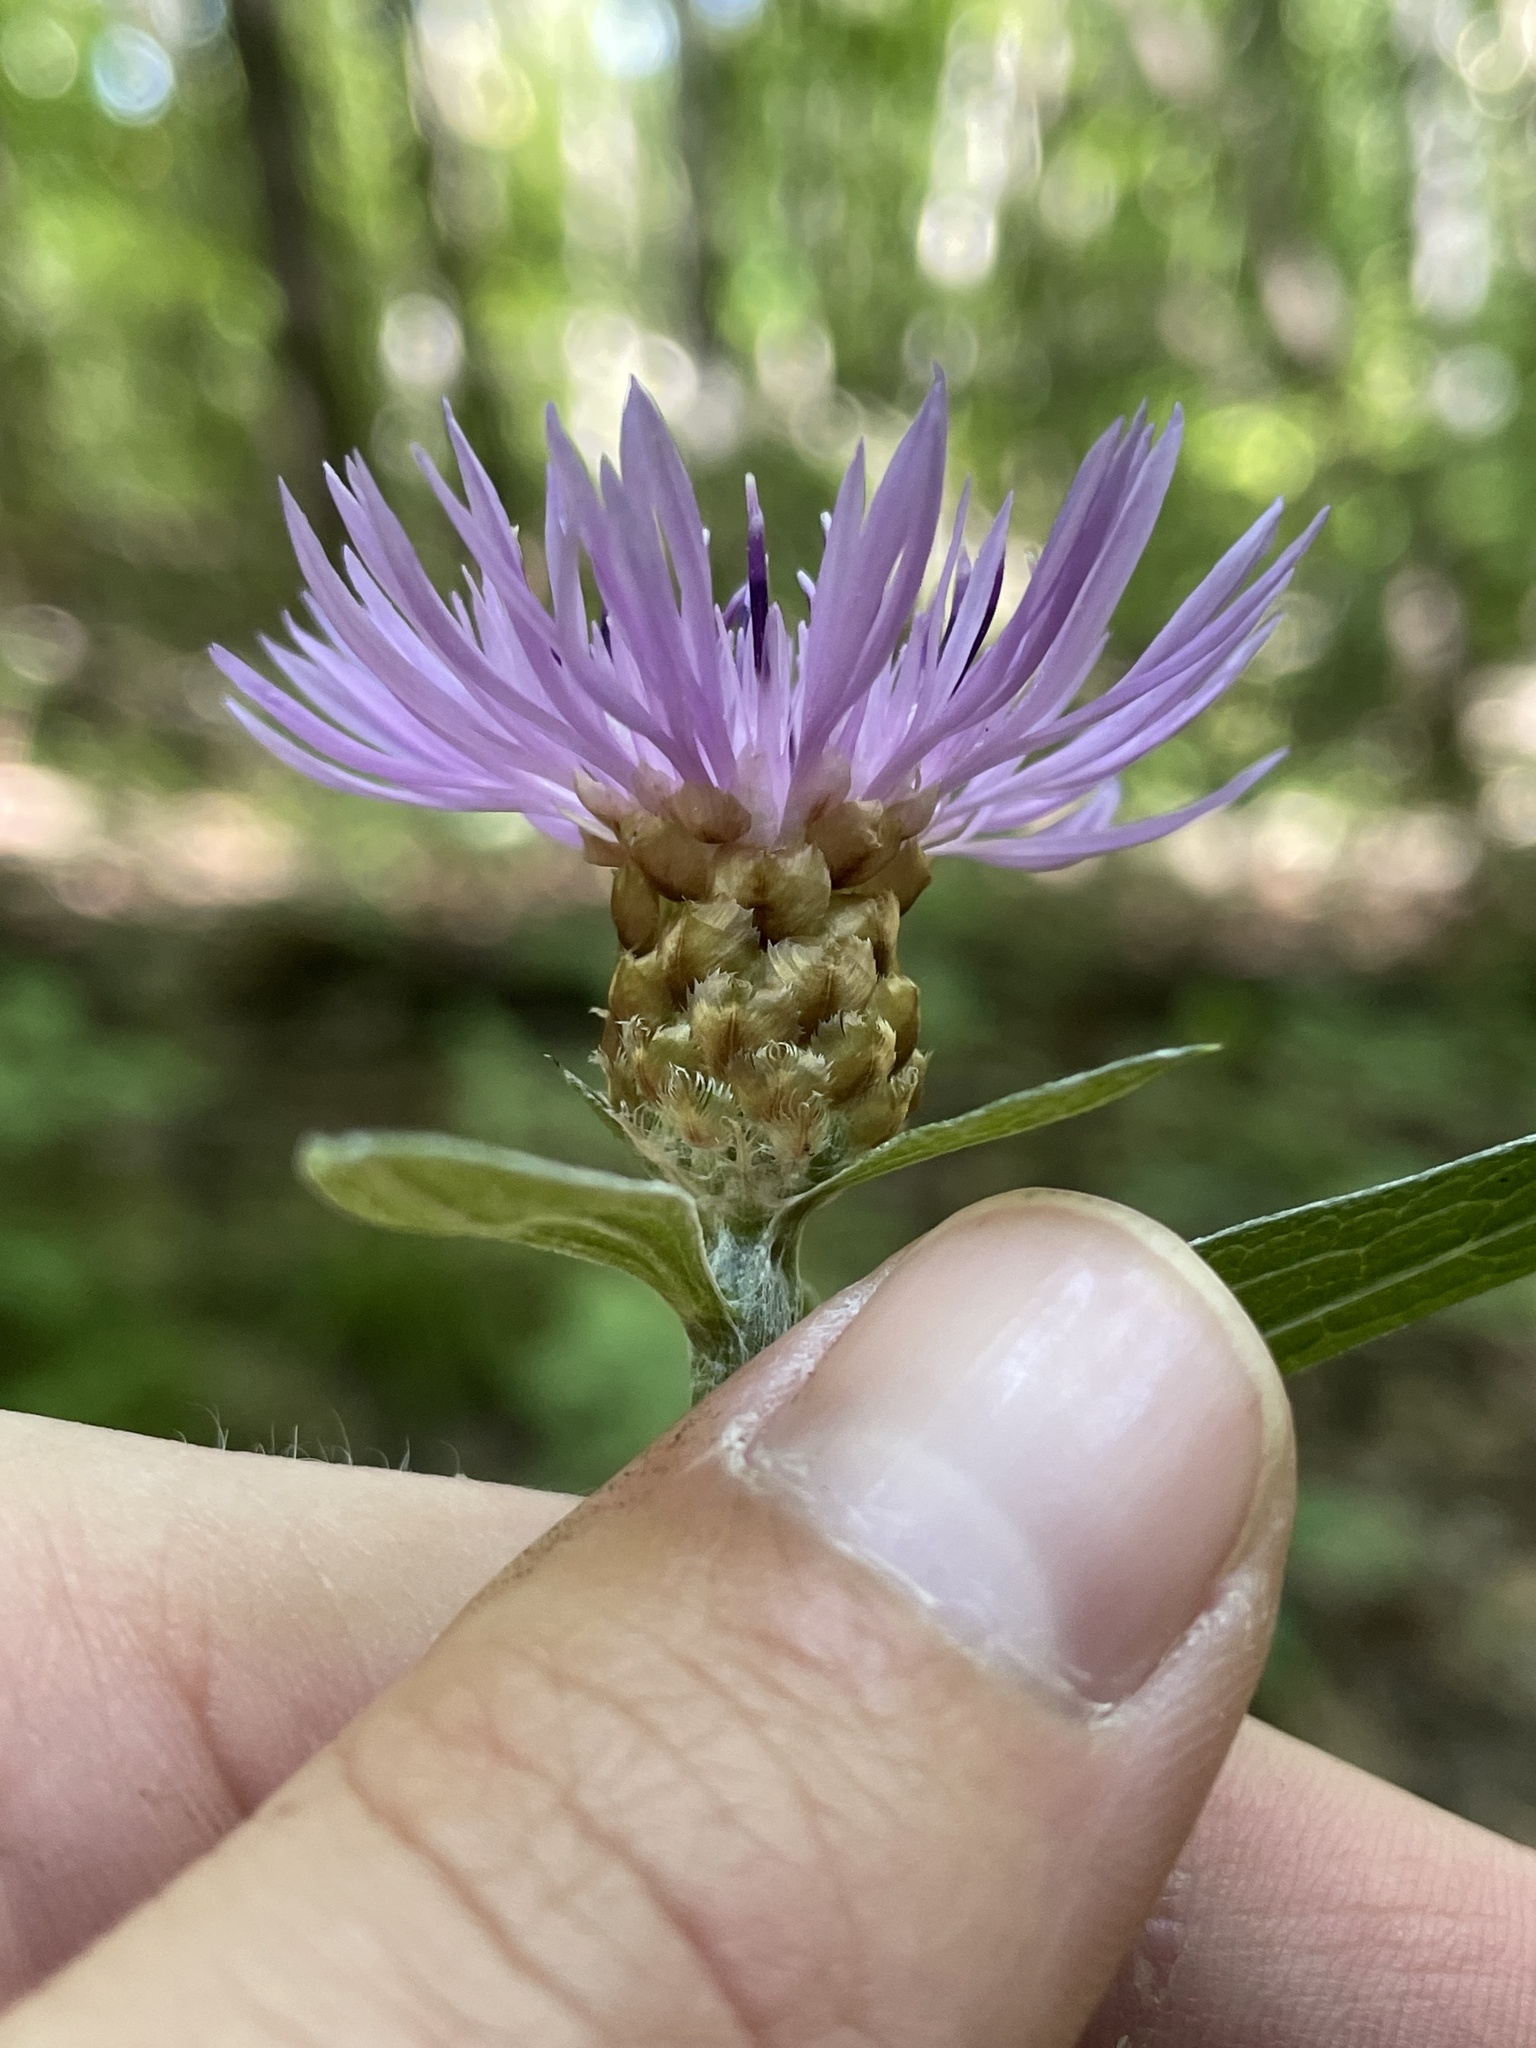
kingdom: Plantae
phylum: Tracheophyta
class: Magnoliopsida
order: Asterales
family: Asteraceae
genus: Centaurea
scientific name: Centaurea jacea
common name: Brown knapweed
